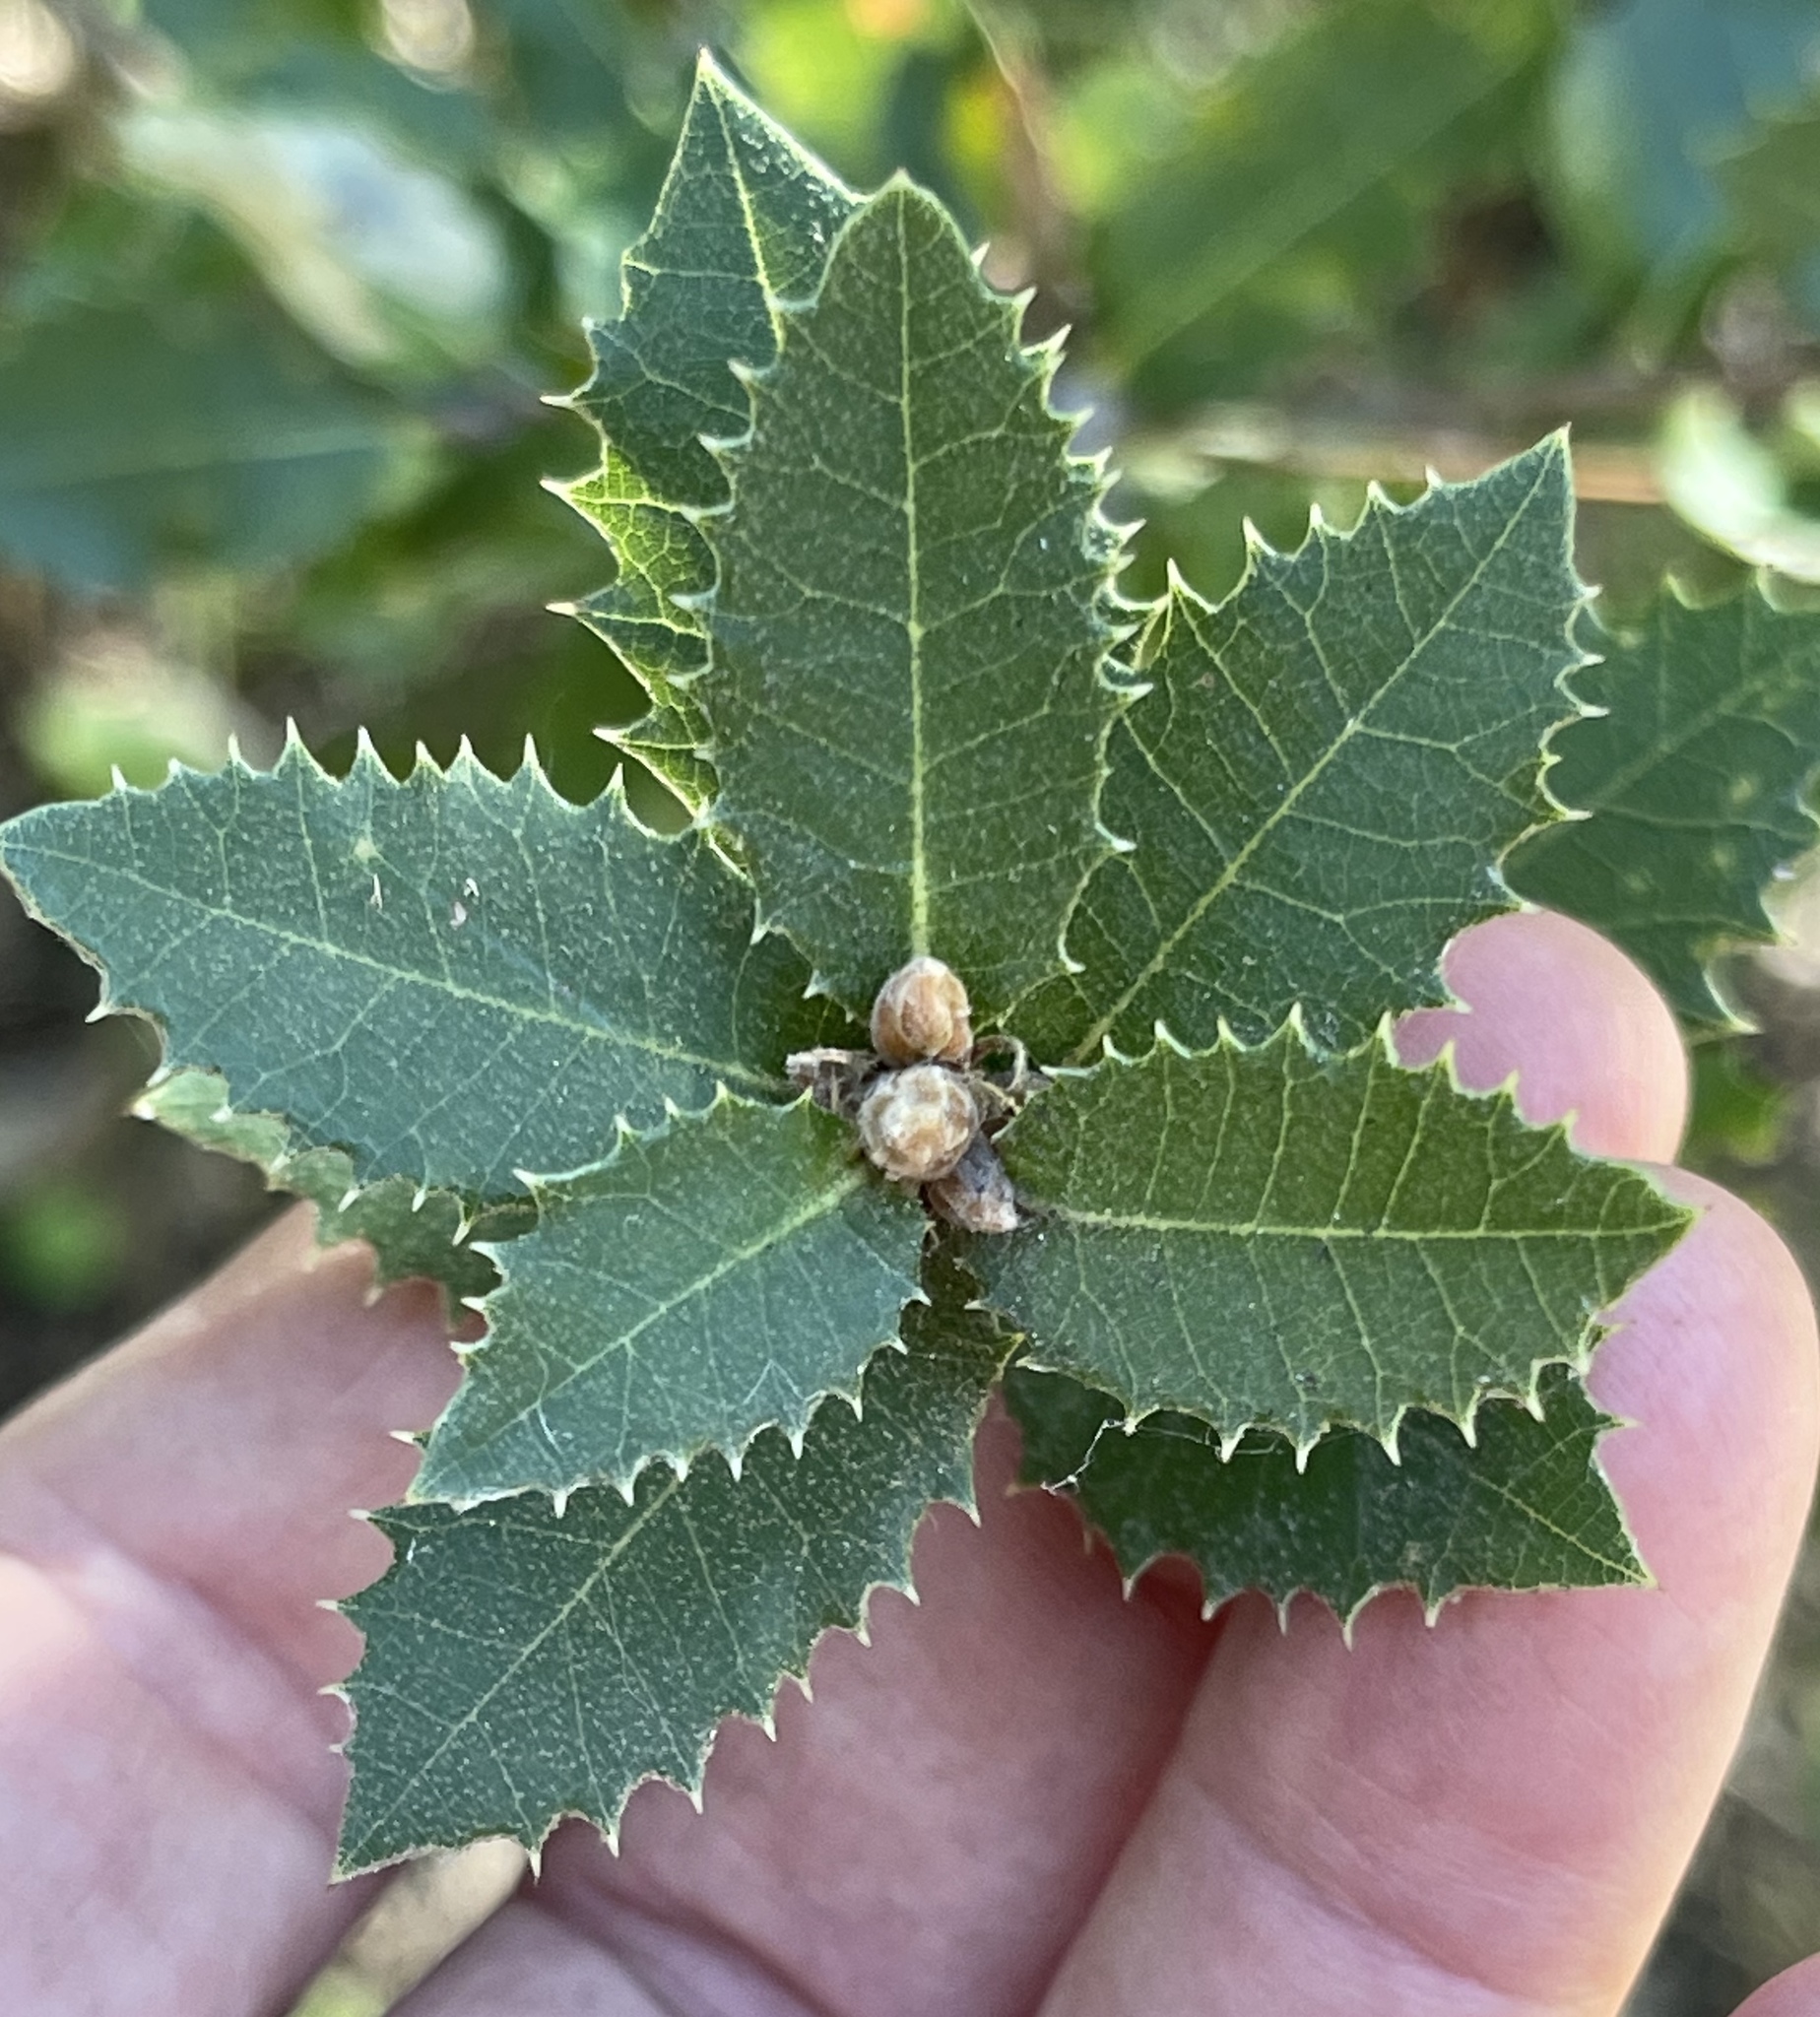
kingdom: Plantae
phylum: Tracheophyta
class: Magnoliopsida
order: Fagales
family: Fagaceae
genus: Quercus
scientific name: Quercus chrysolepis
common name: Canyon live oak
